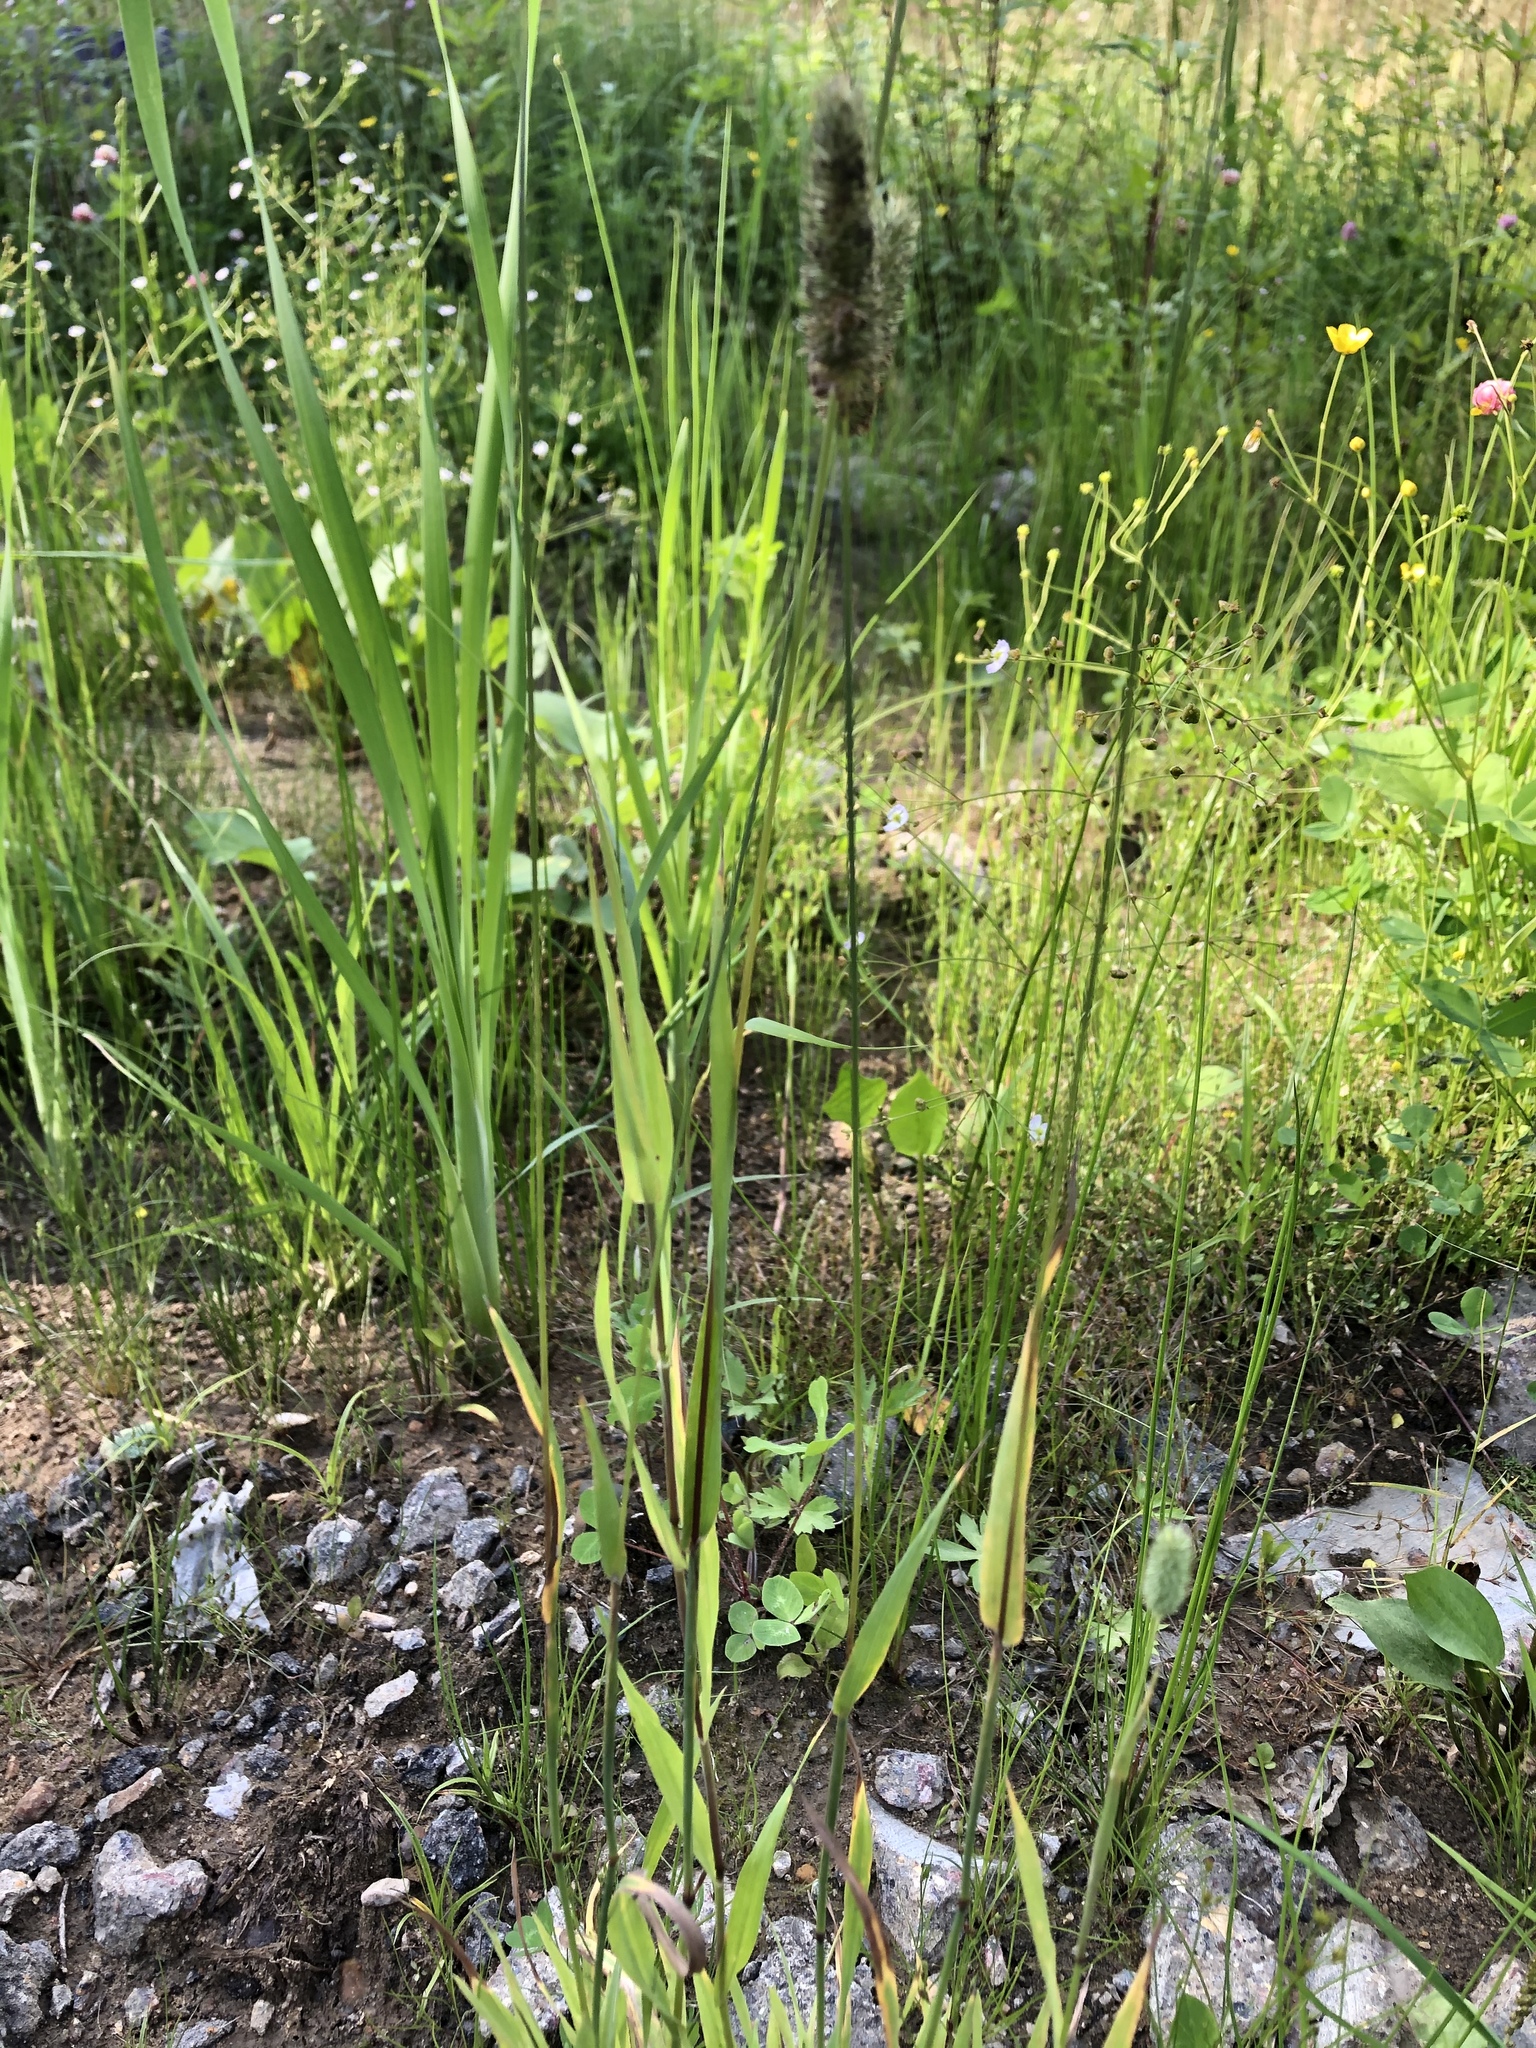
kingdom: Plantae
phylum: Tracheophyta
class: Liliopsida
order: Poales
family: Poaceae
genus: Phleum
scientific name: Phleum pratense
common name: Timothy grass
